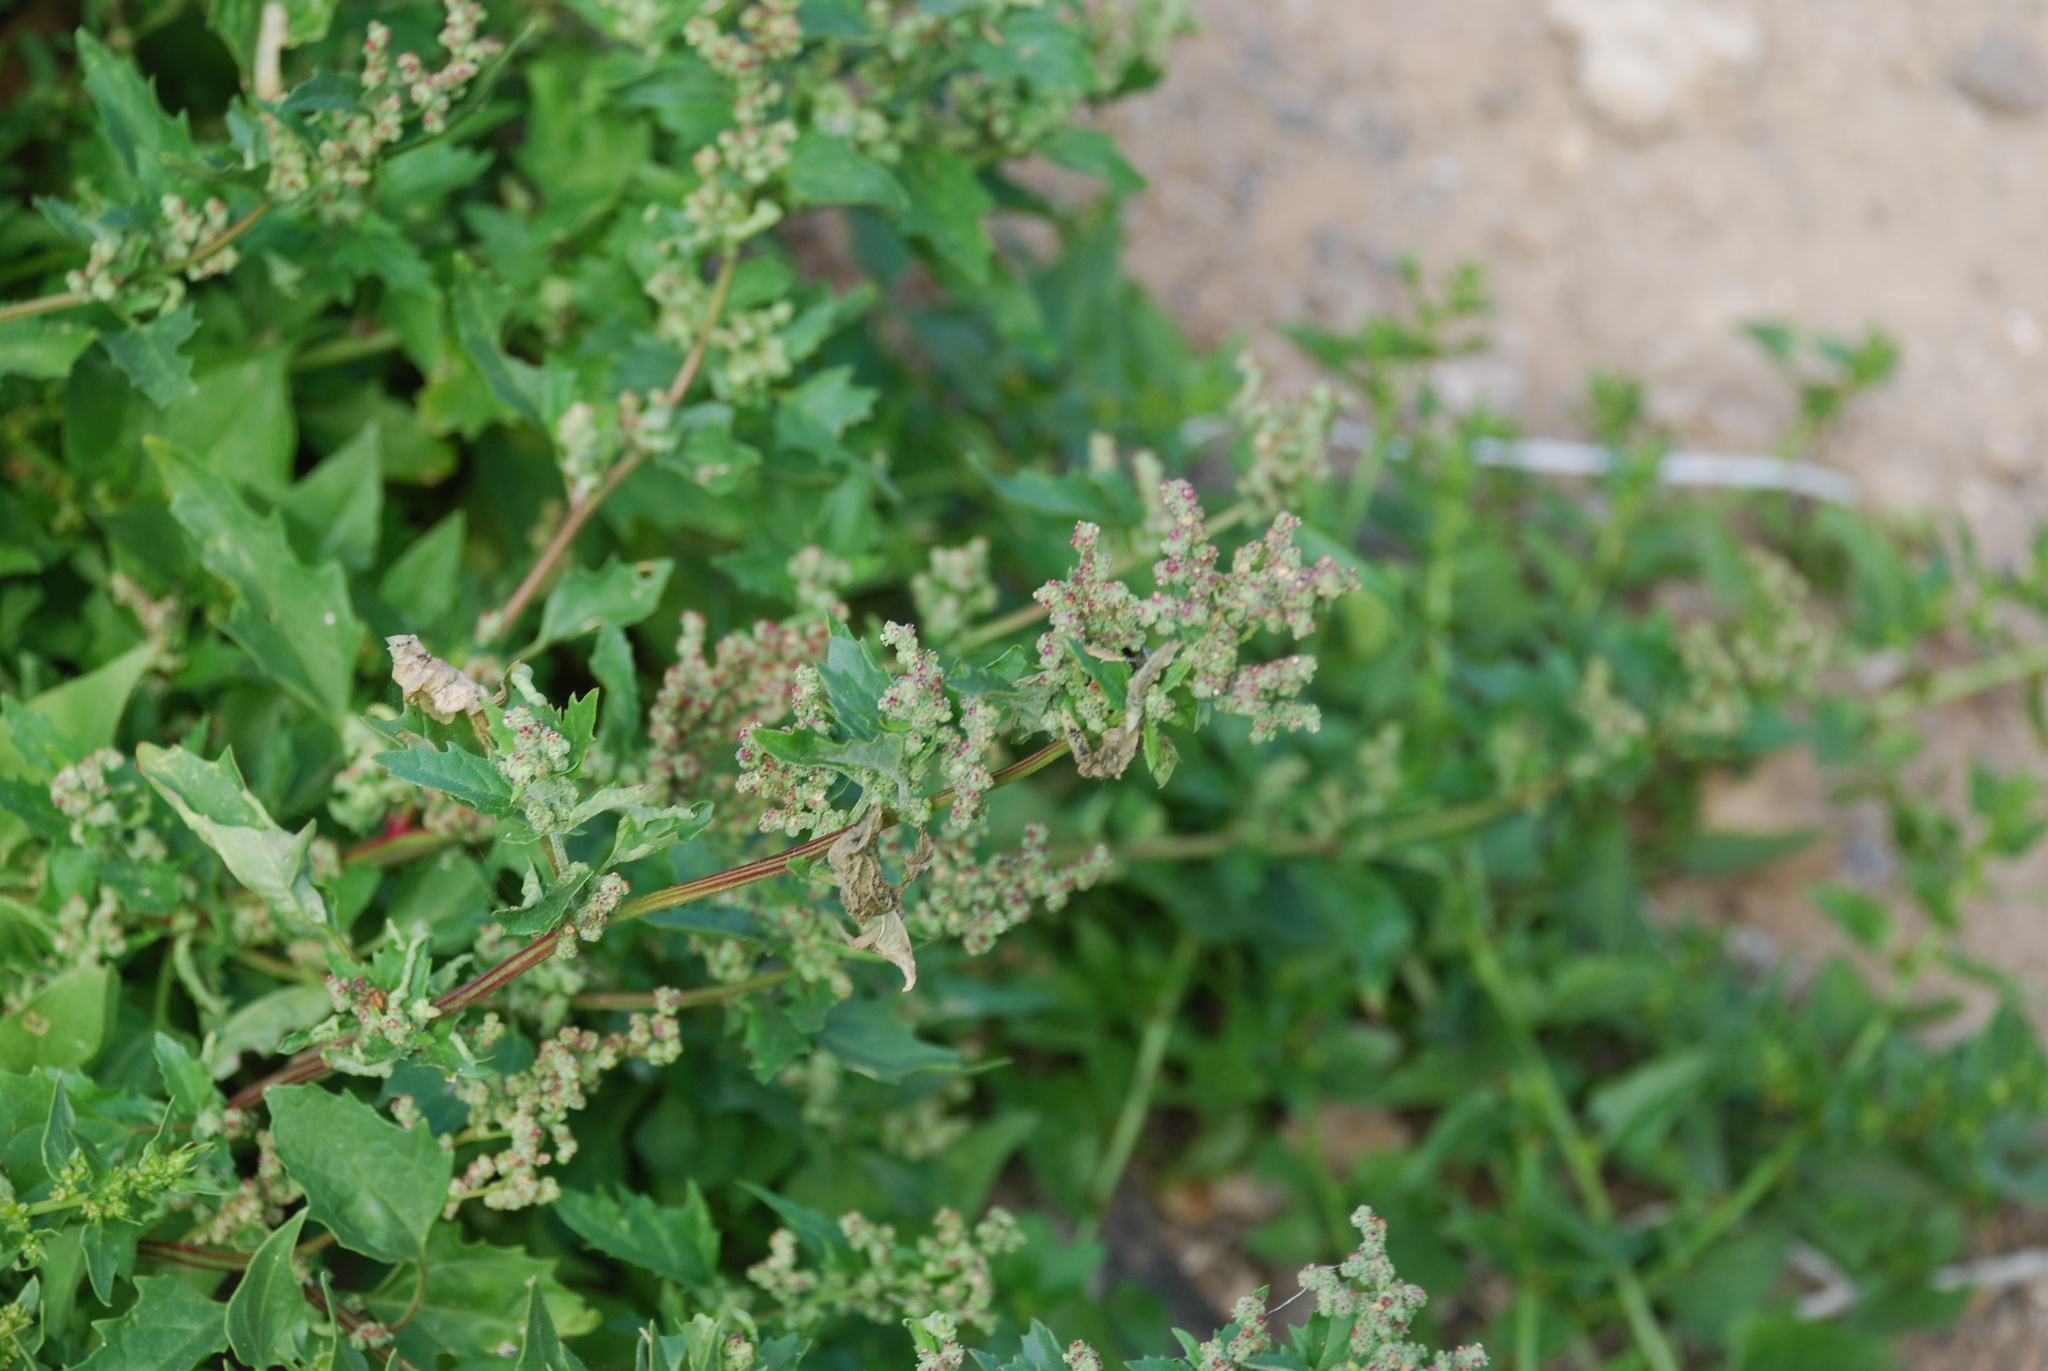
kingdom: Plantae
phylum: Tracheophyta
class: Magnoliopsida
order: Caryophyllales
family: Amaranthaceae
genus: Chenopodiastrum
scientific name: Chenopodiastrum murale
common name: Sowbane
